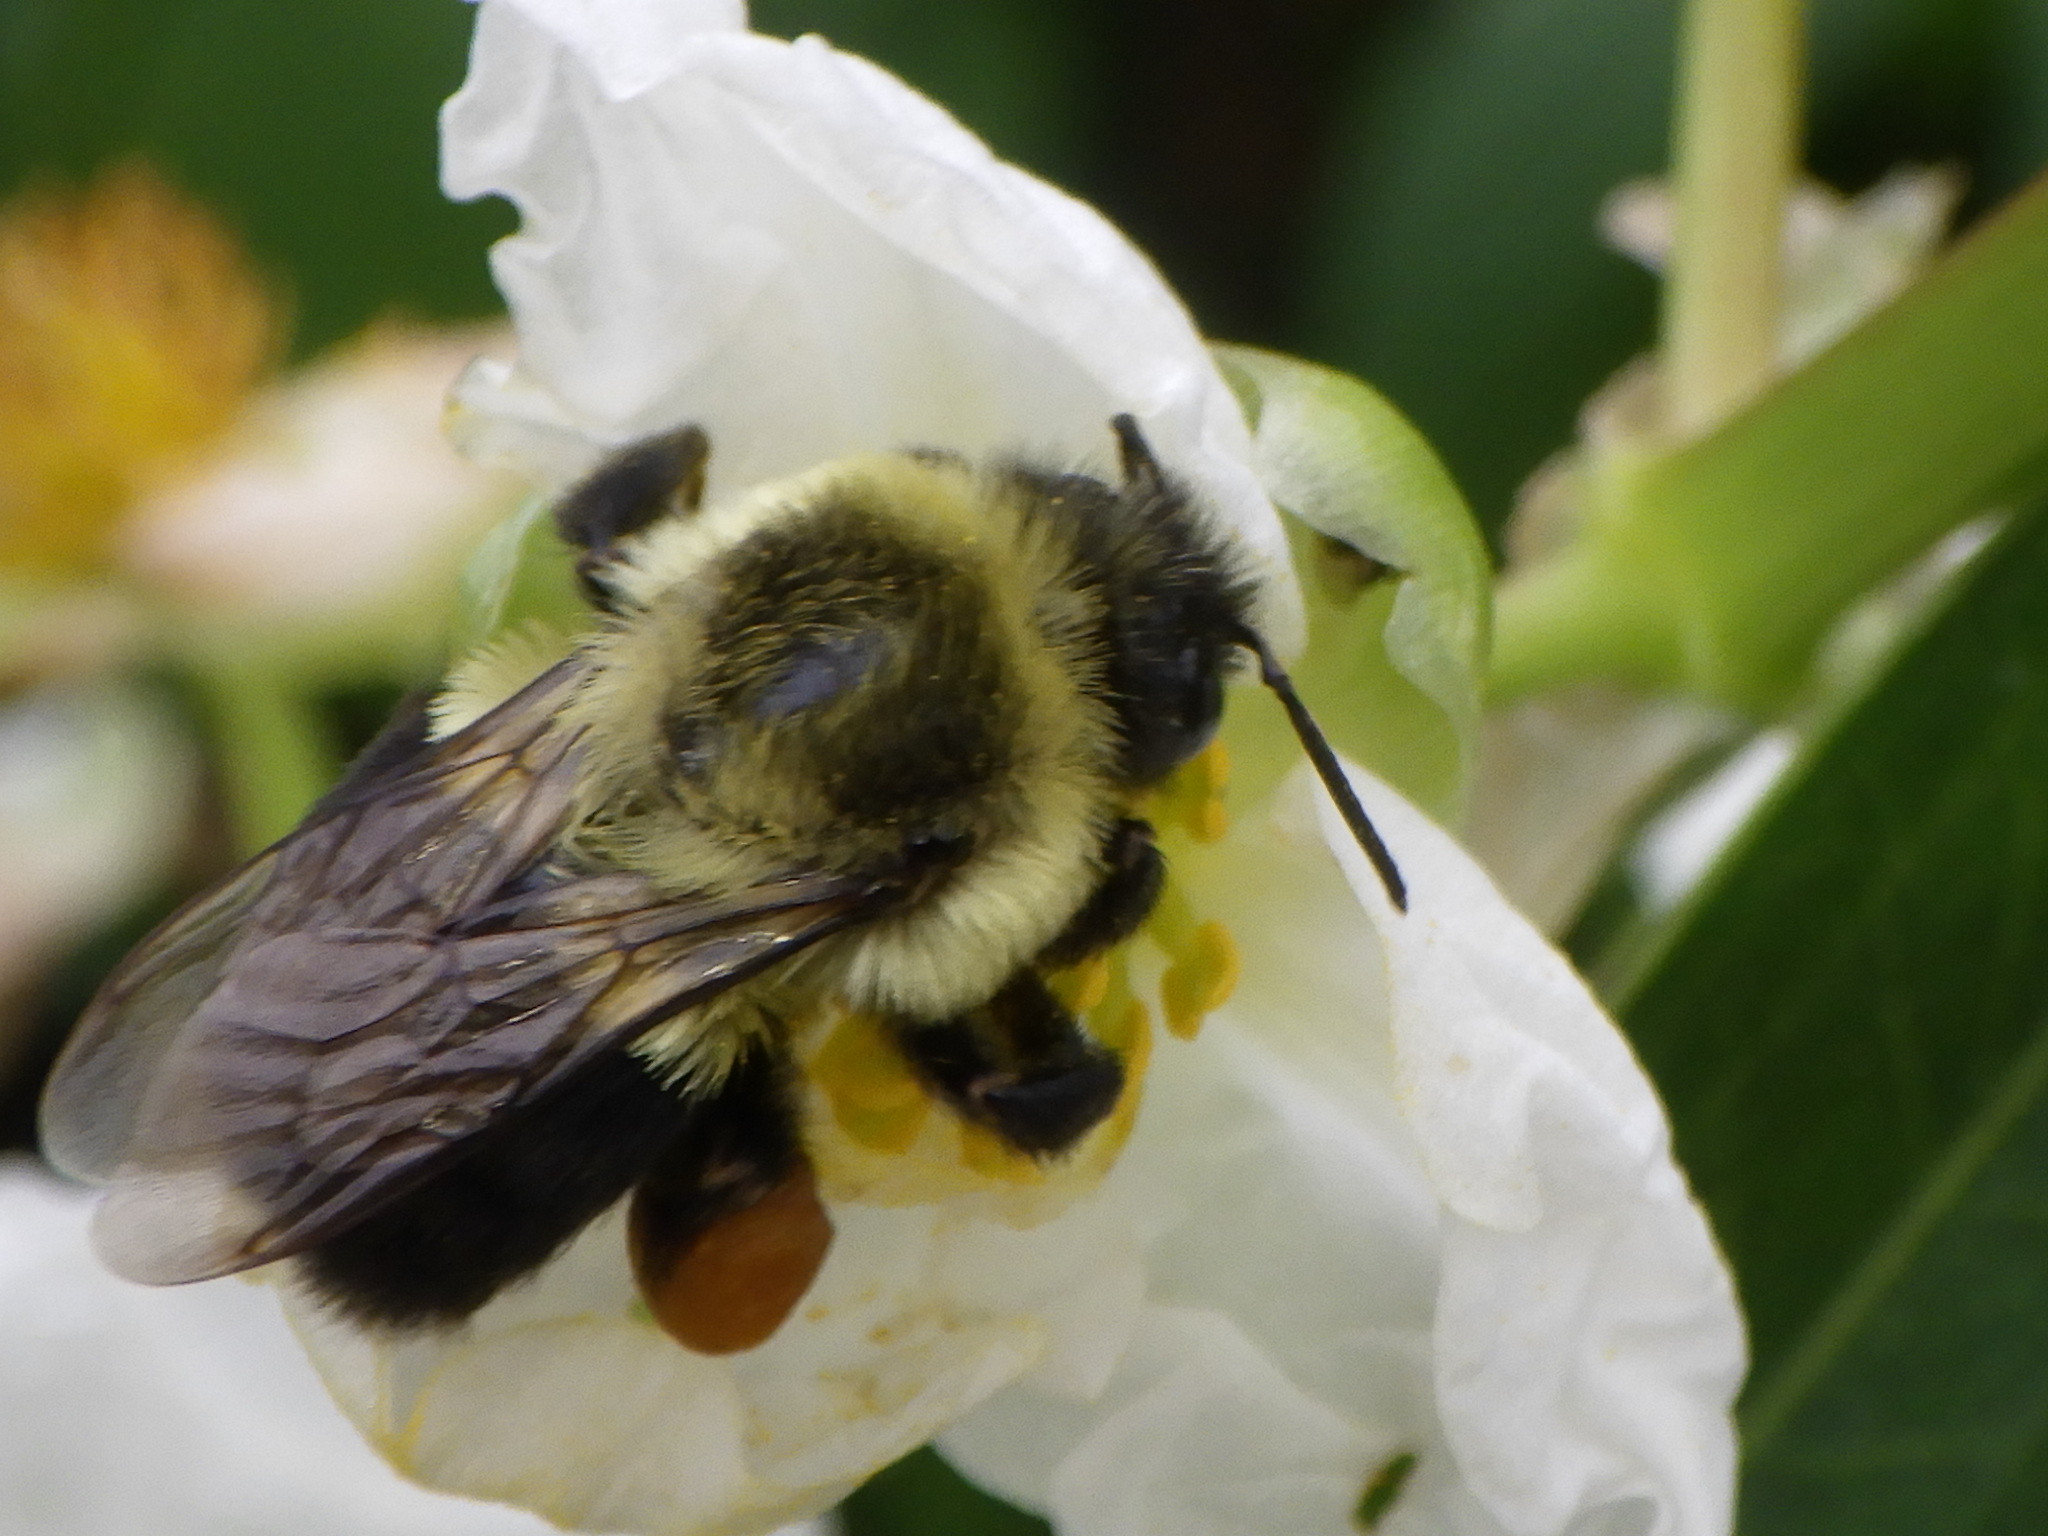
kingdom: Animalia
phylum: Arthropoda
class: Insecta
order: Hymenoptera
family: Apidae
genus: Bombus
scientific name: Bombus impatiens
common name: Common eastern bumble bee
